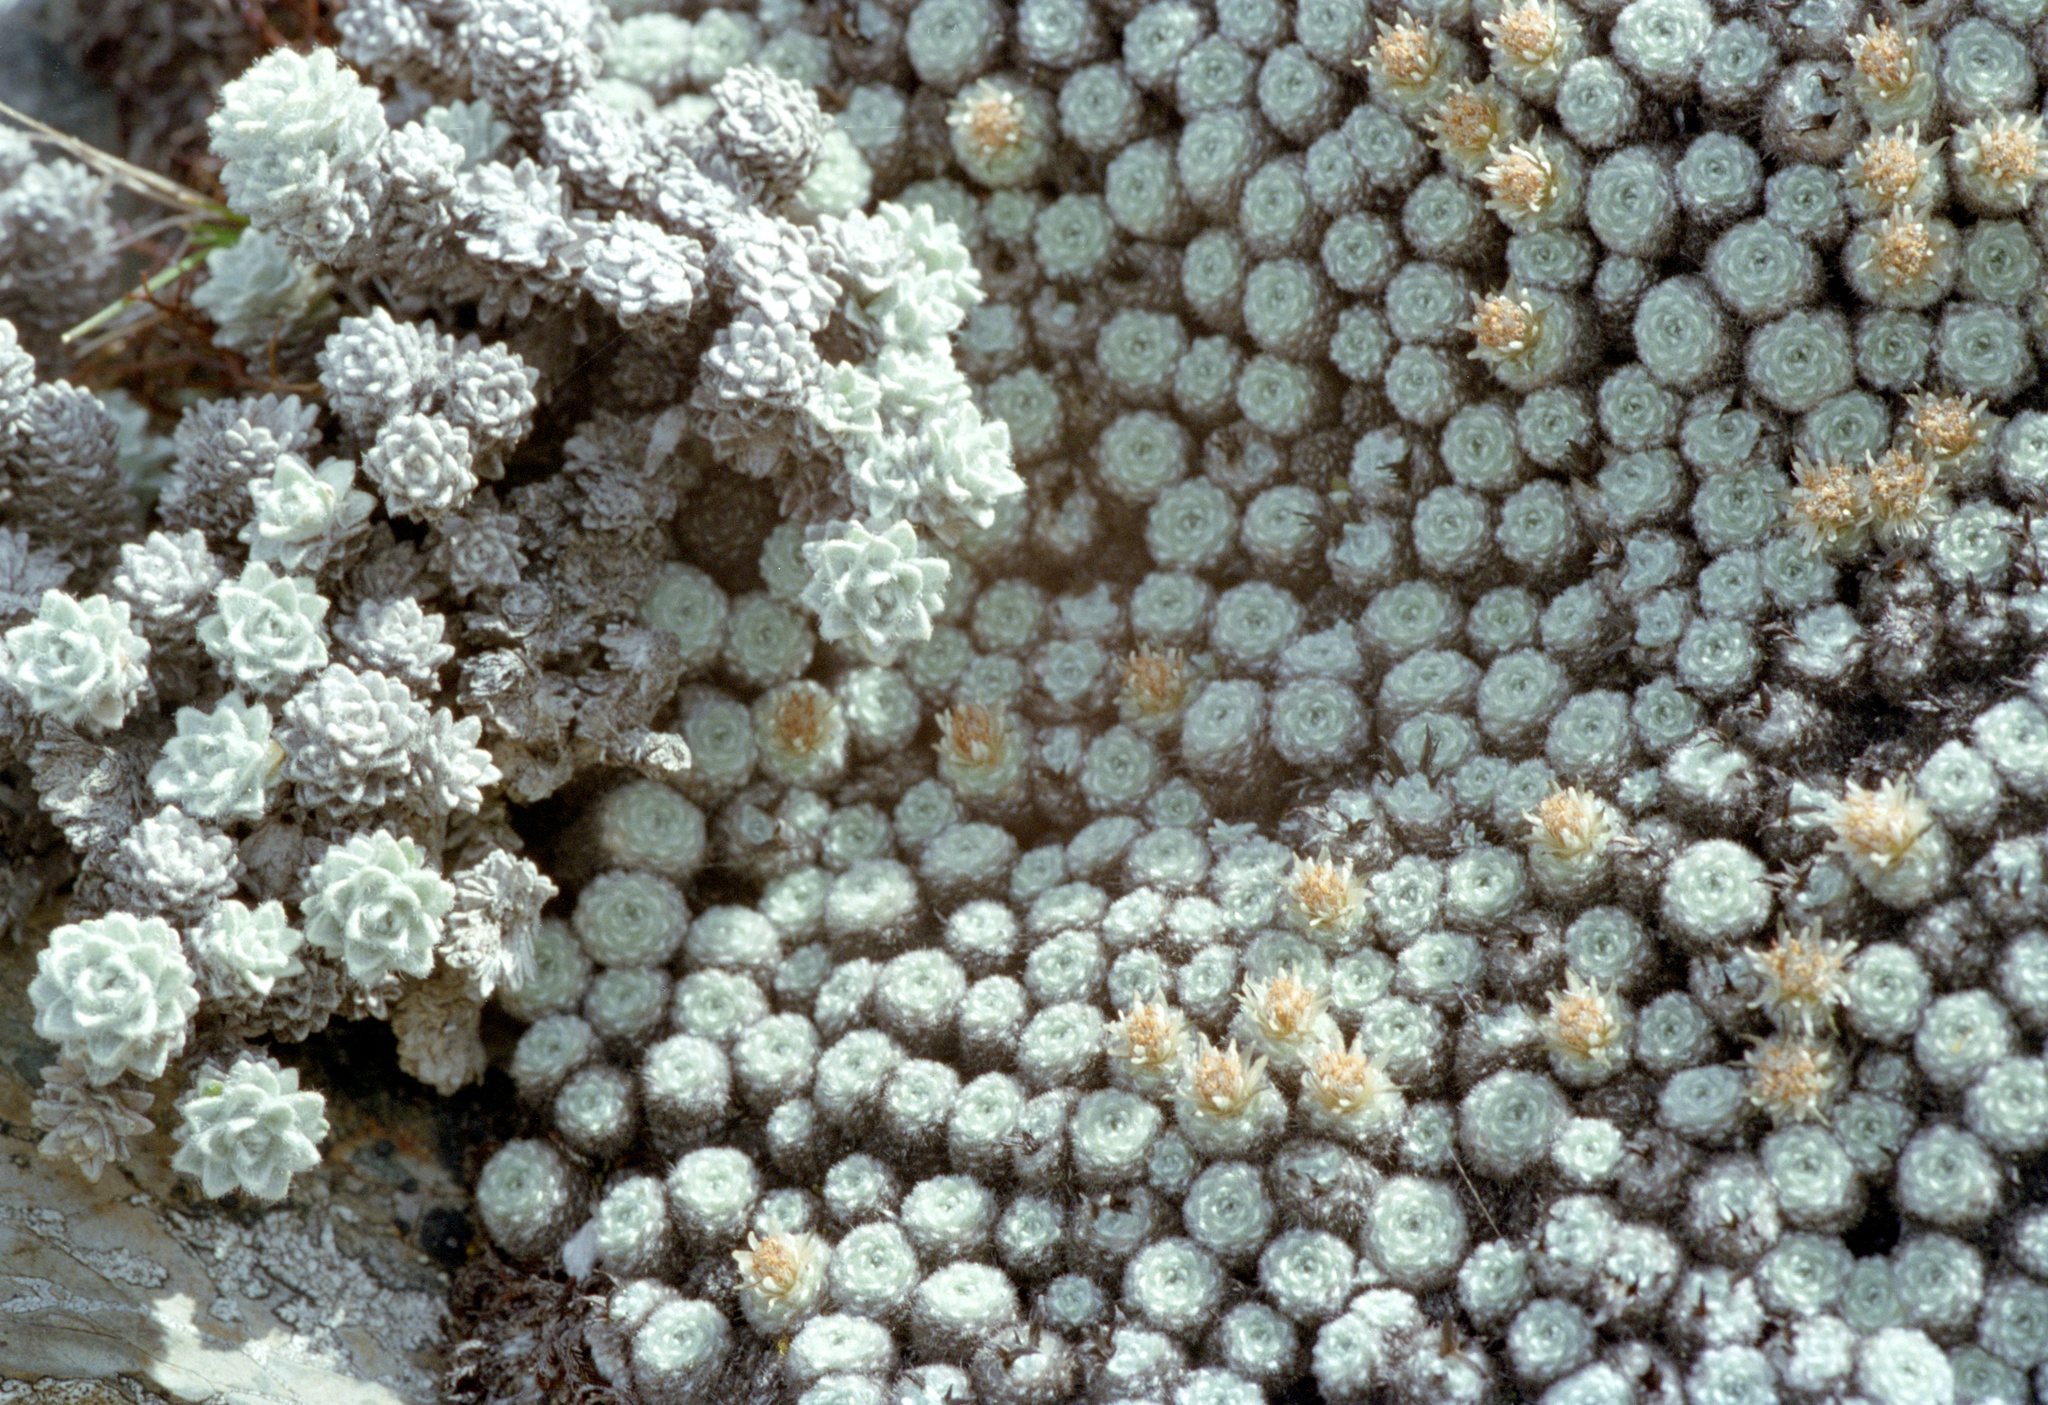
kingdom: Plantae
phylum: Tracheophyta
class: Magnoliopsida
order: Asterales
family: Asteraceae
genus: Raoulia
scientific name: Raoulia mammillaris
